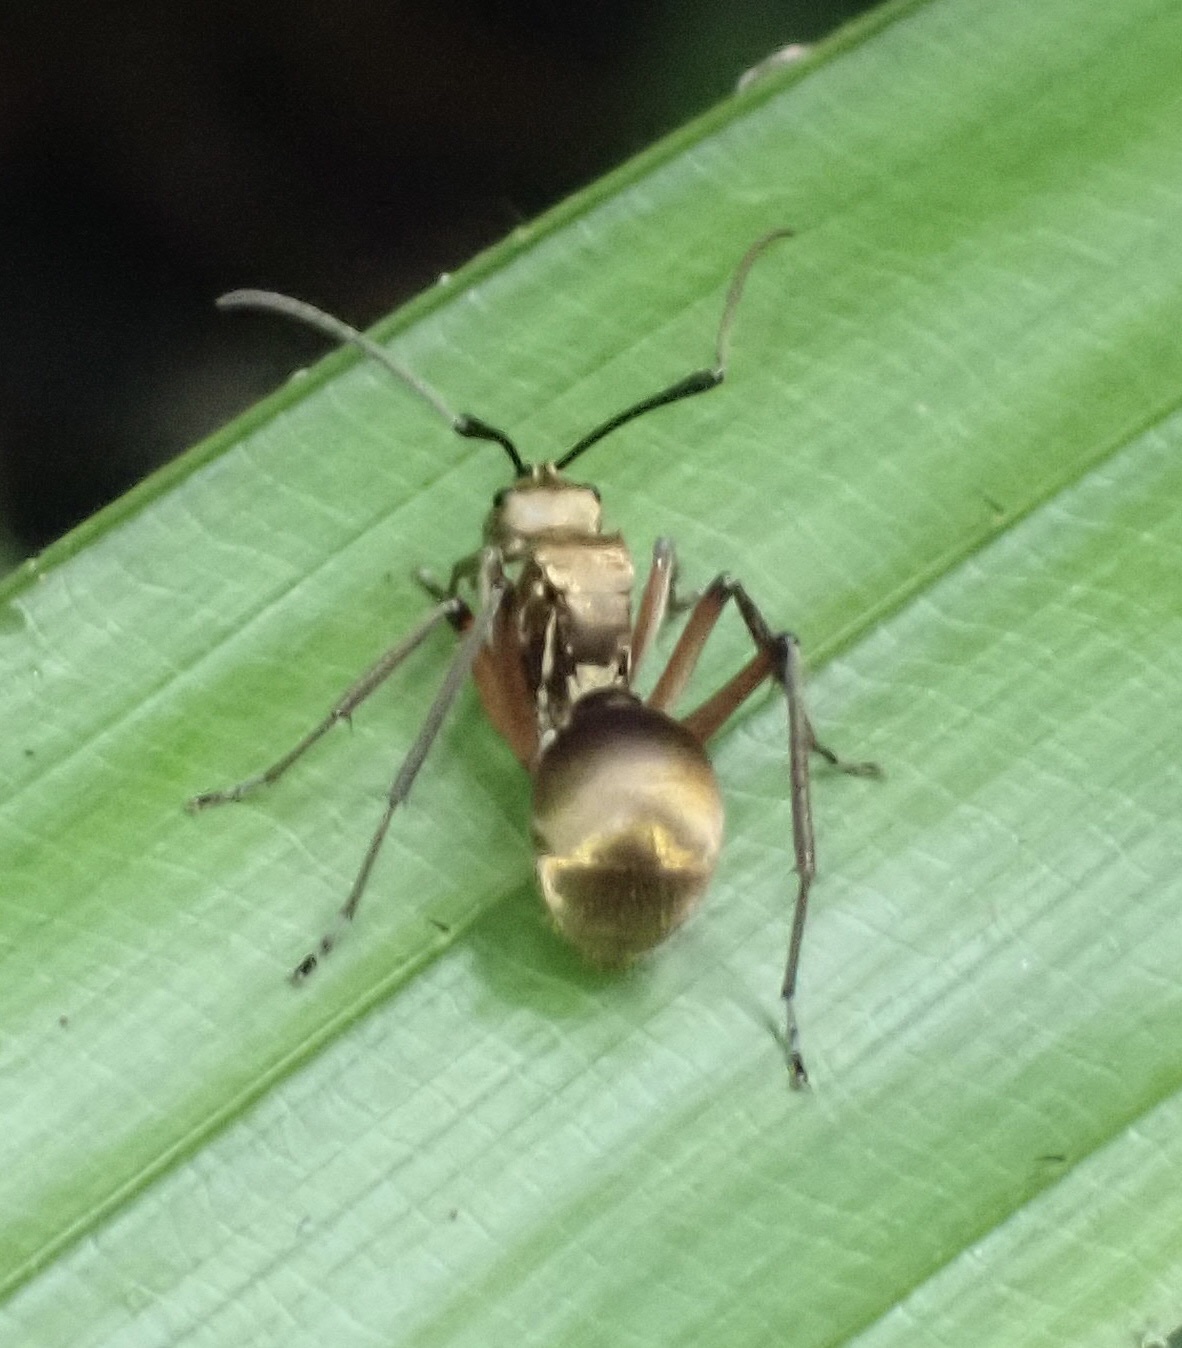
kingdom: Animalia
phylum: Arthropoda
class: Insecta
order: Hymenoptera
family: Formicidae
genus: Polyrhachis
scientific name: Polyrhachis andromache
